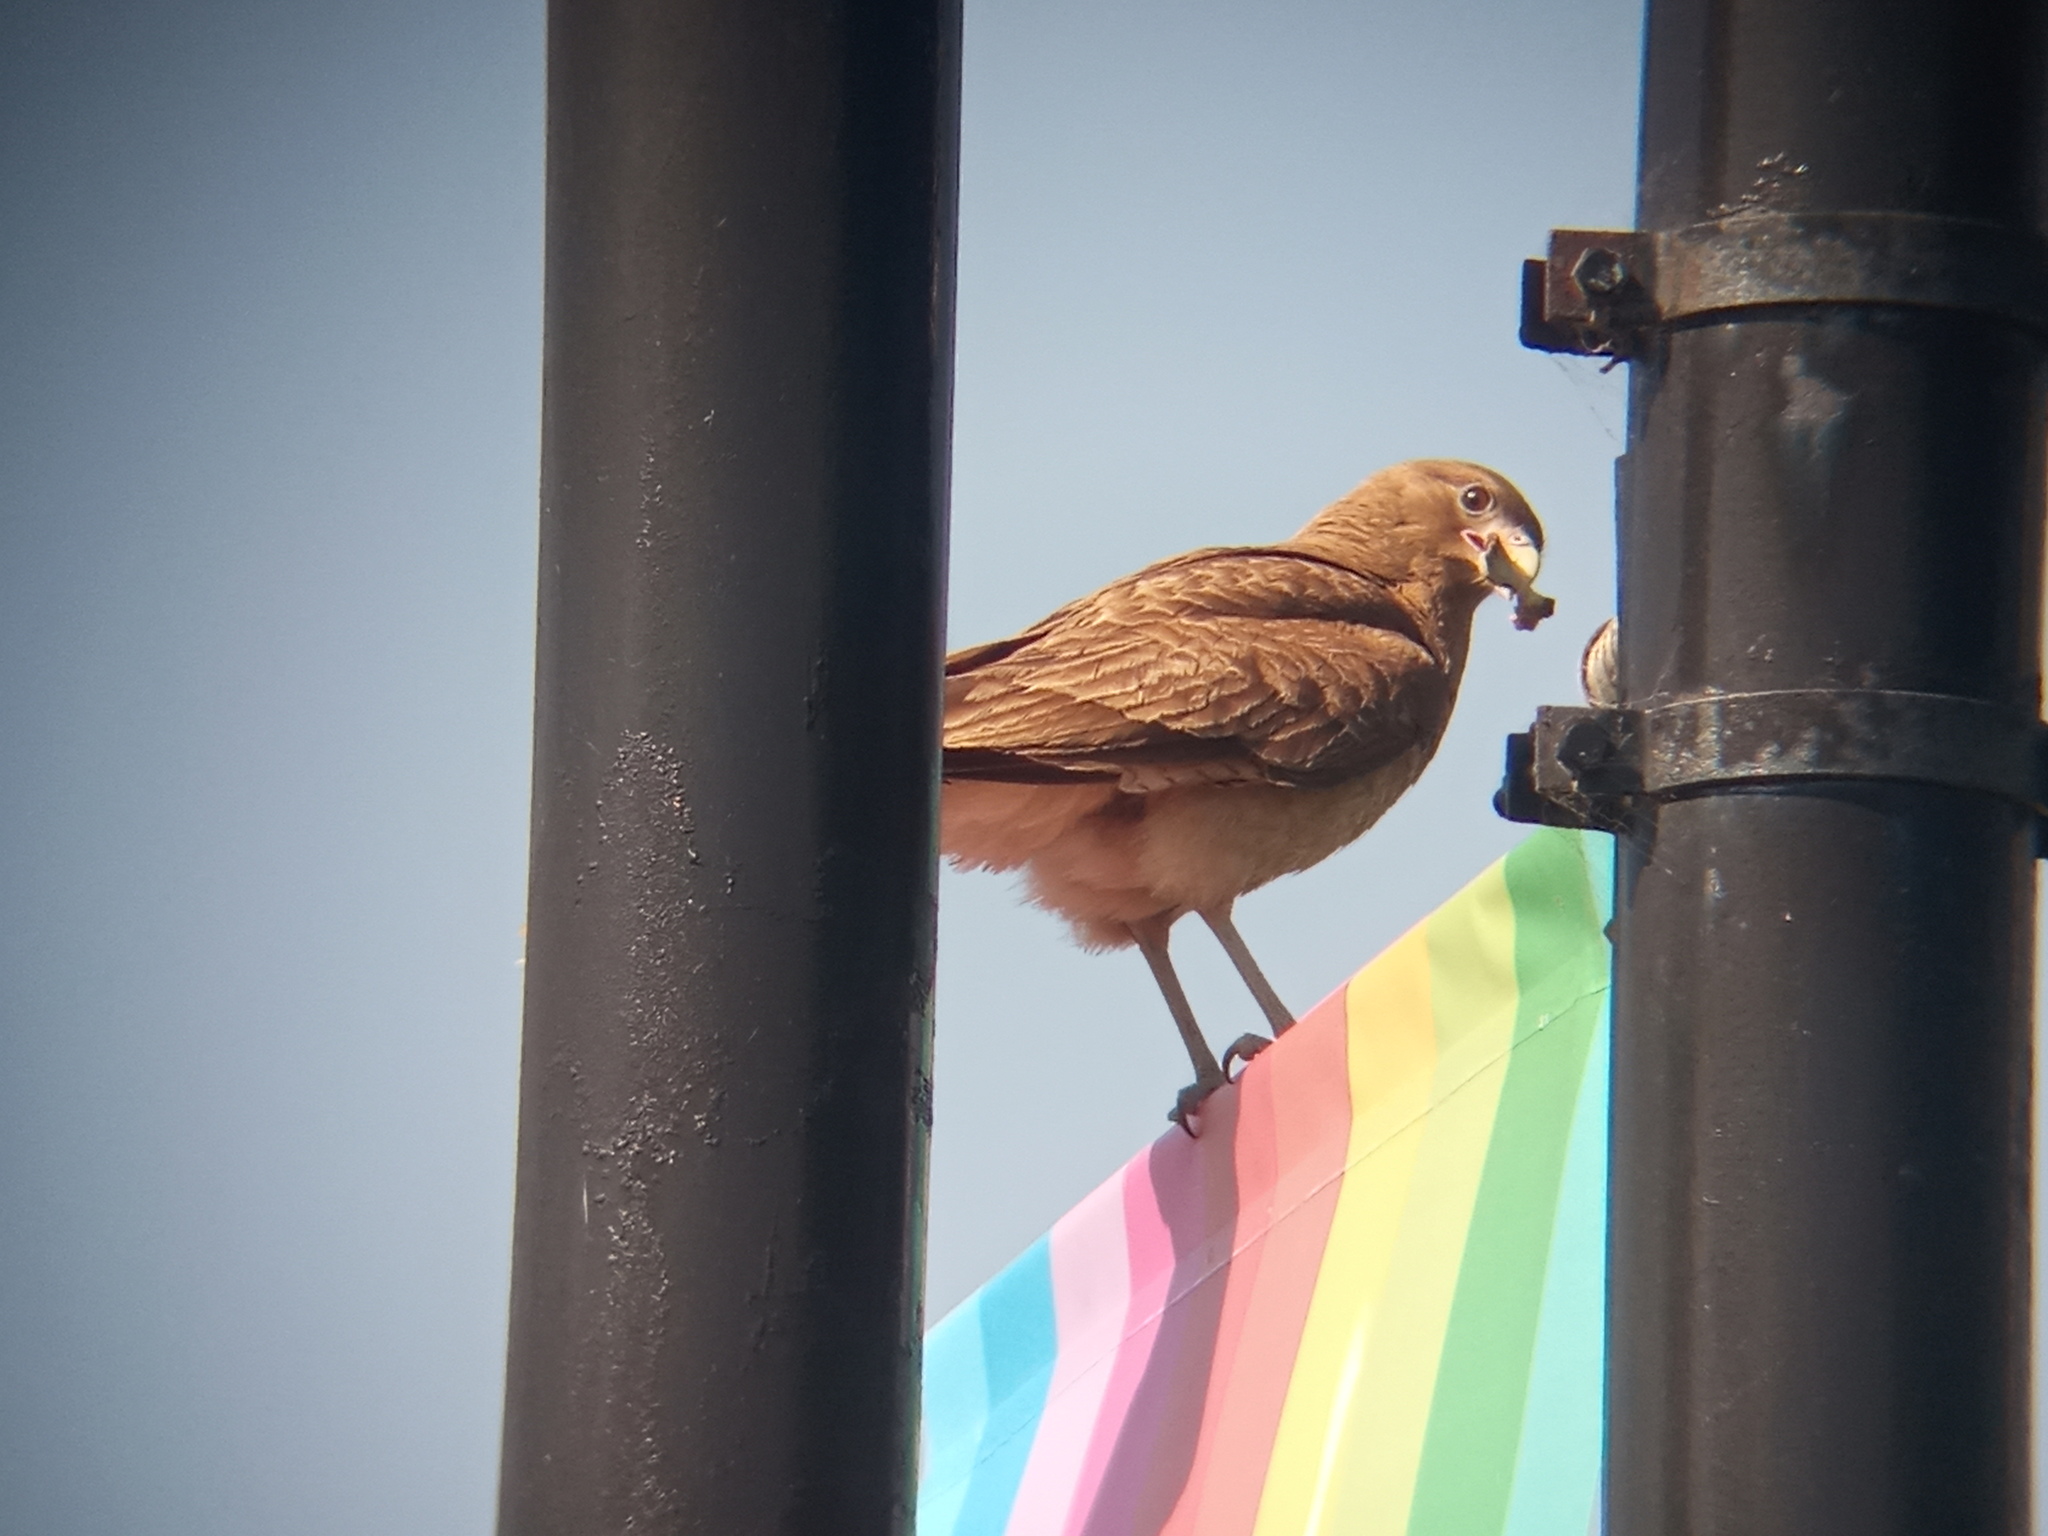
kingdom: Animalia
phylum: Chordata
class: Aves
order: Falconiformes
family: Falconidae
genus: Daptrius
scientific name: Daptrius
